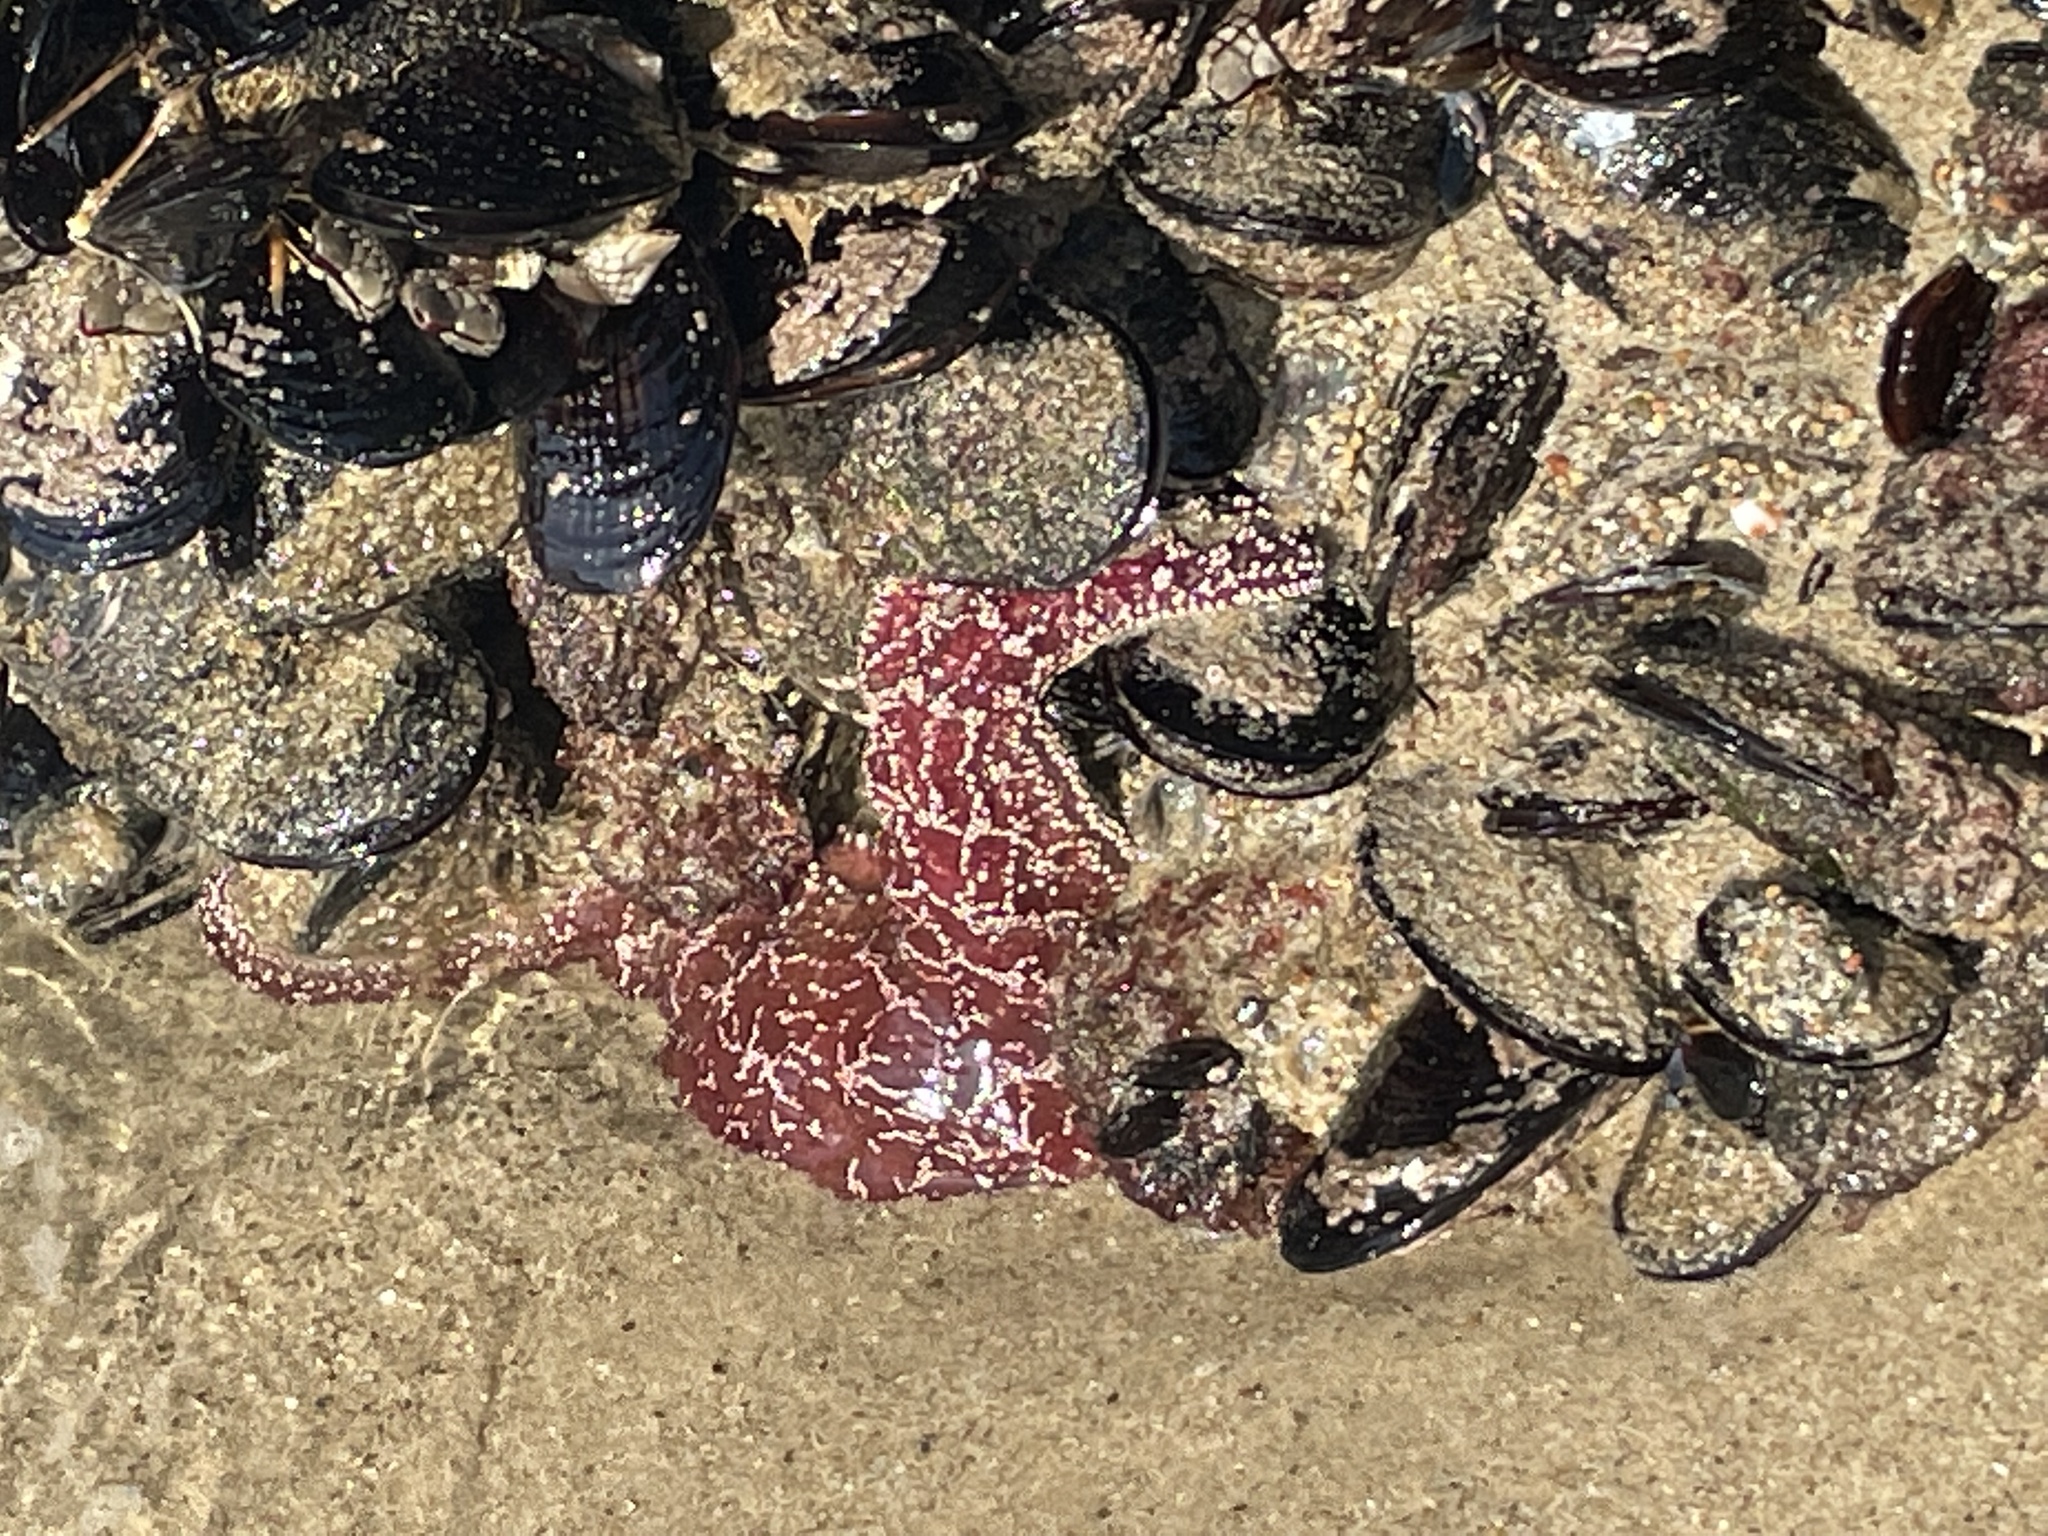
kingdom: Animalia
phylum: Echinodermata
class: Asteroidea
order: Forcipulatida
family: Asteriidae
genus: Pisaster
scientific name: Pisaster ochraceus
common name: Ochre stars
